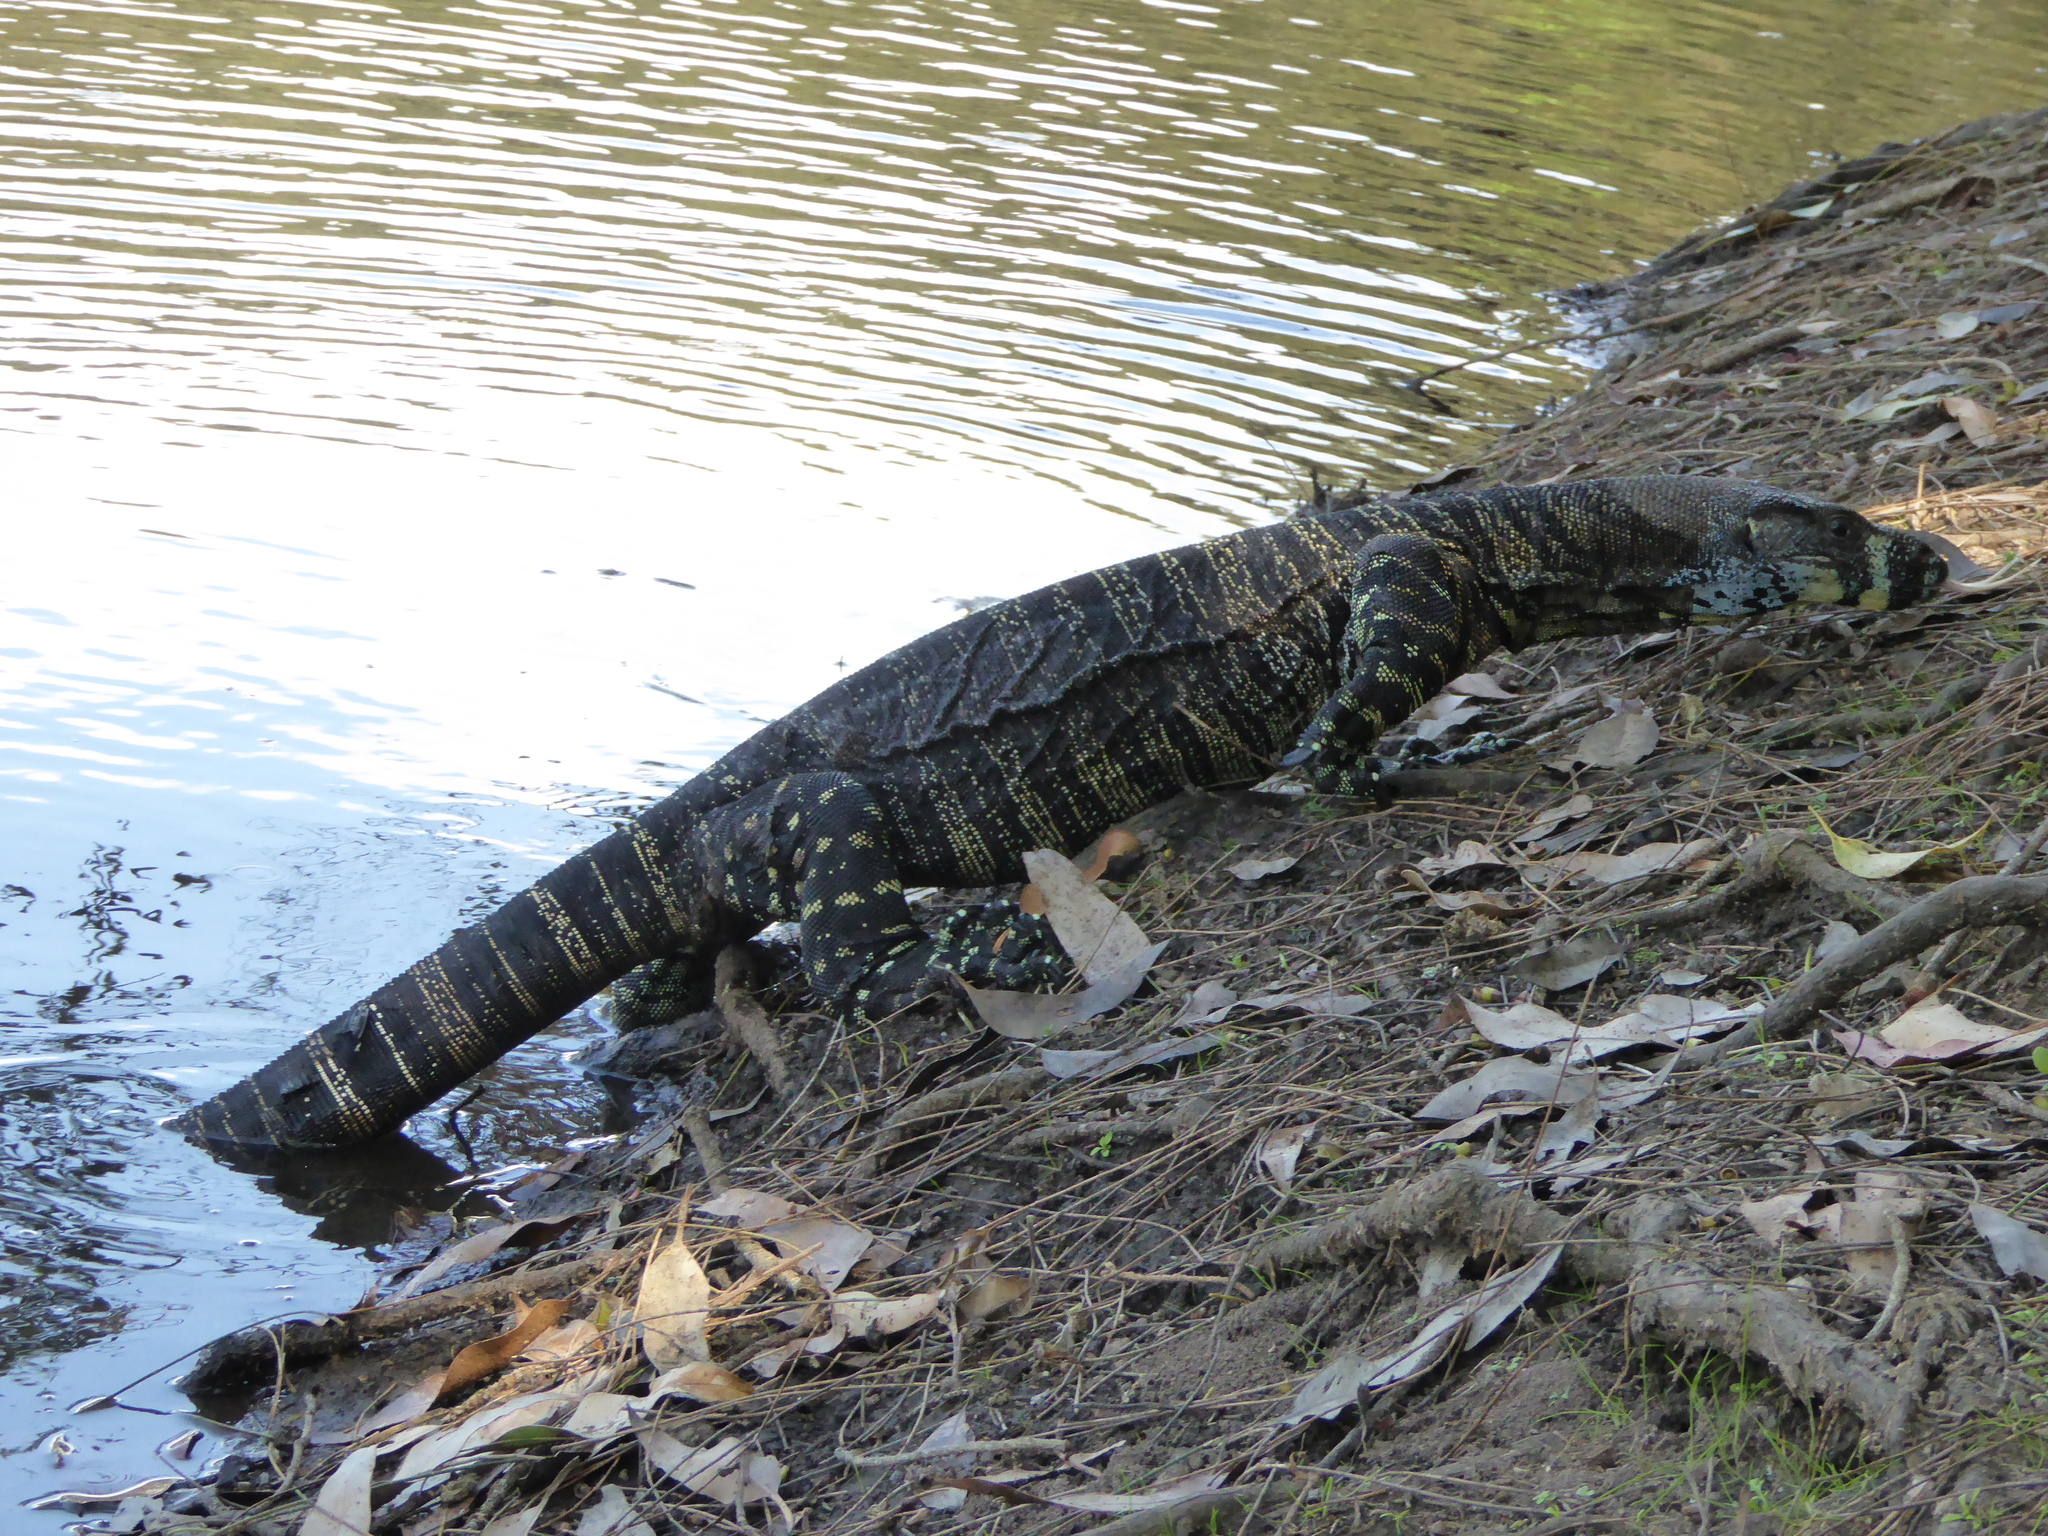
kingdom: Animalia
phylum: Chordata
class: Squamata
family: Varanidae
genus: Varanus
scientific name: Varanus varius
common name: Lace monitor
